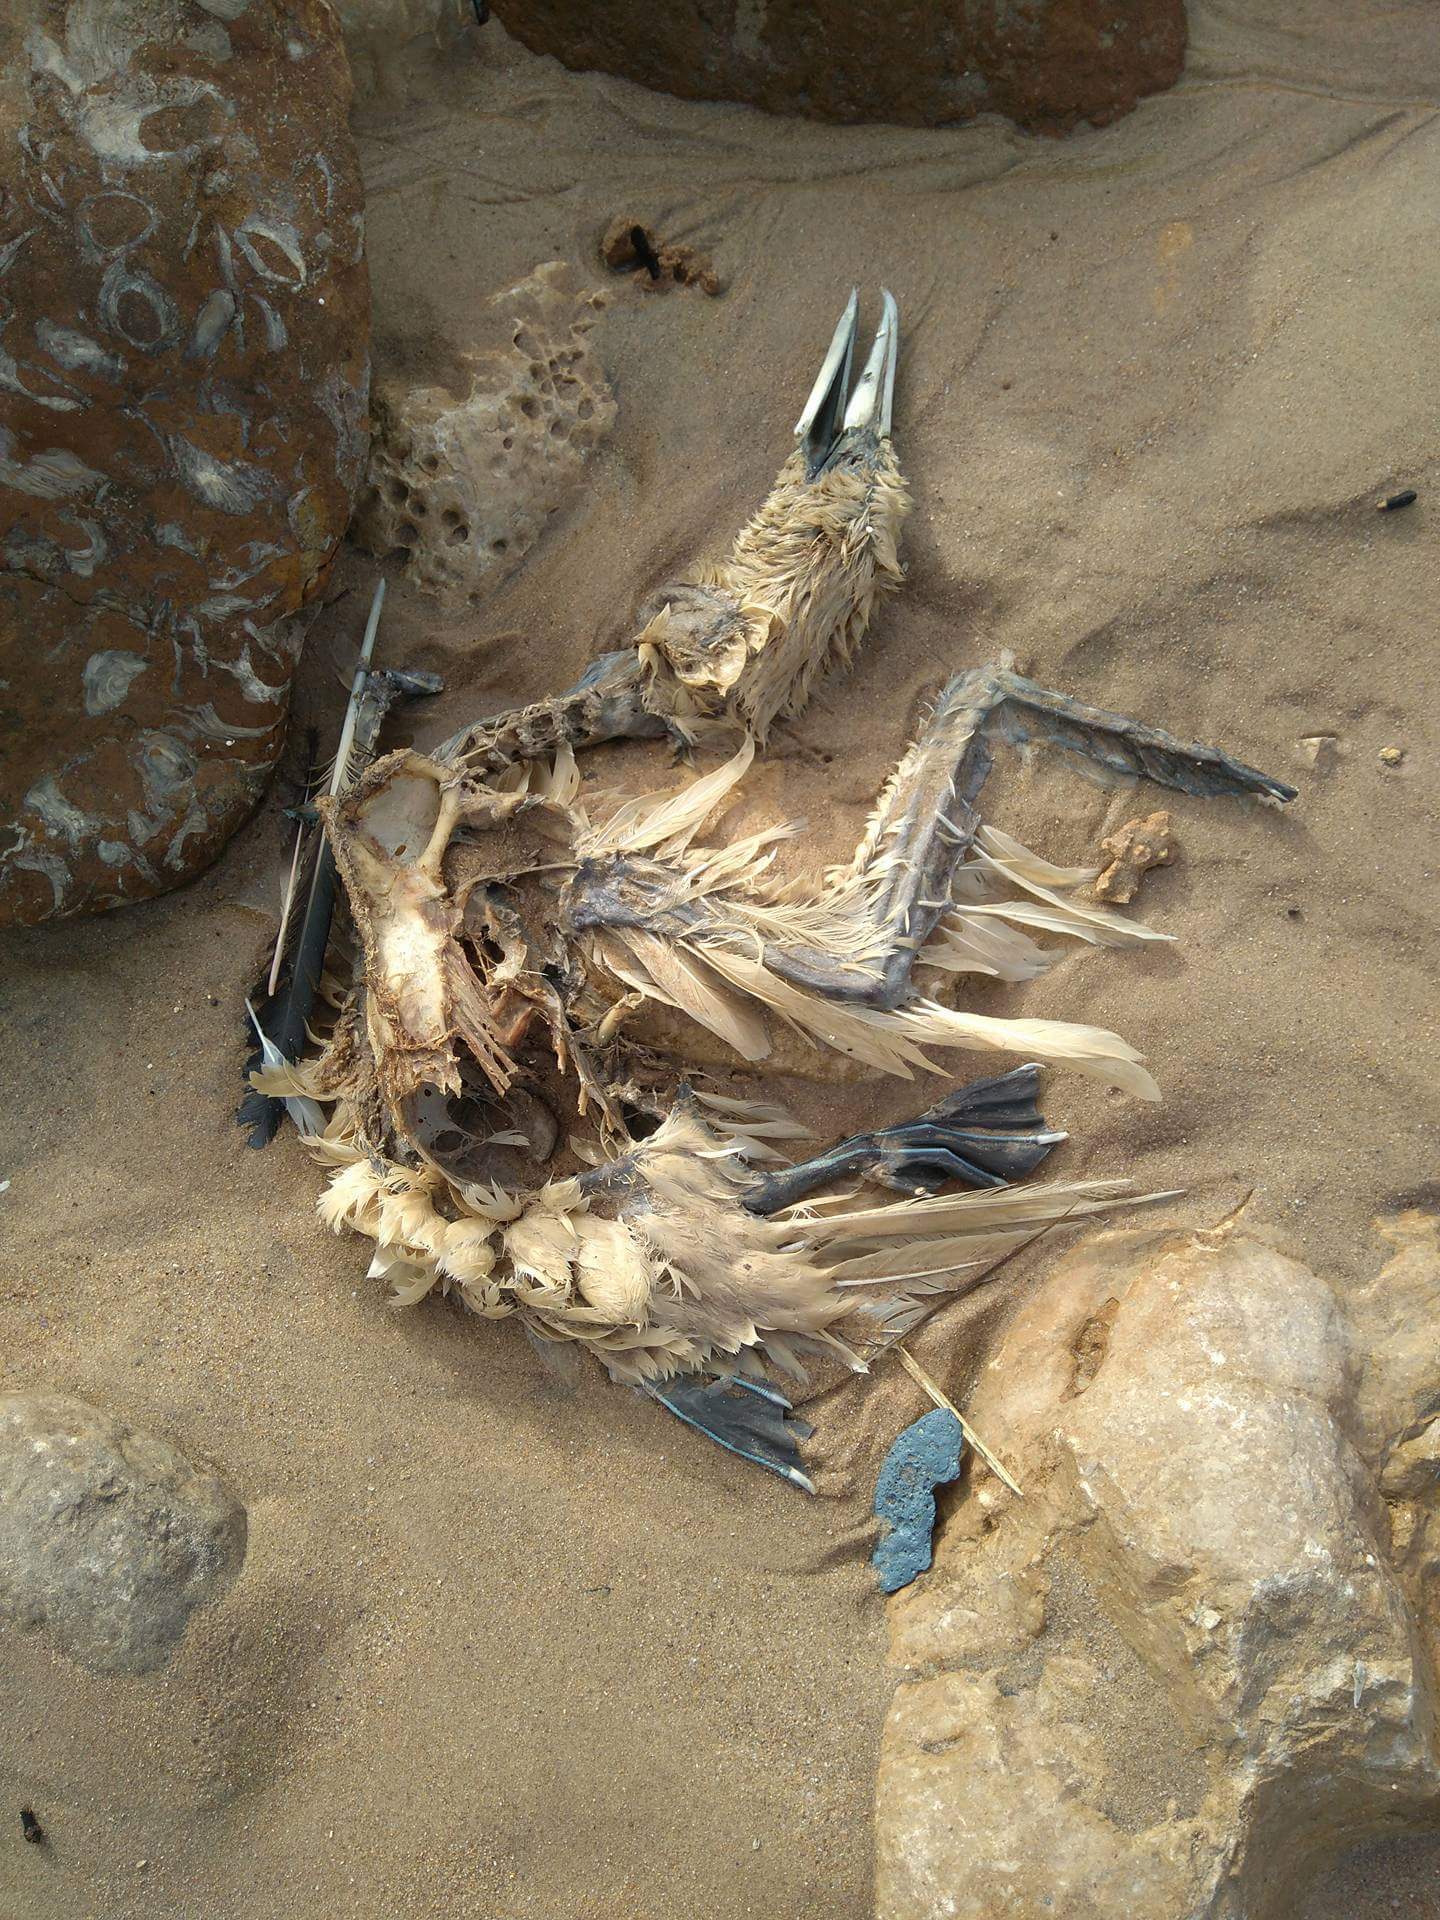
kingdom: Animalia
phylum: Chordata
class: Aves
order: Suliformes
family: Sulidae
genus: Morus
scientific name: Morus bassanus
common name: Northern gannet
